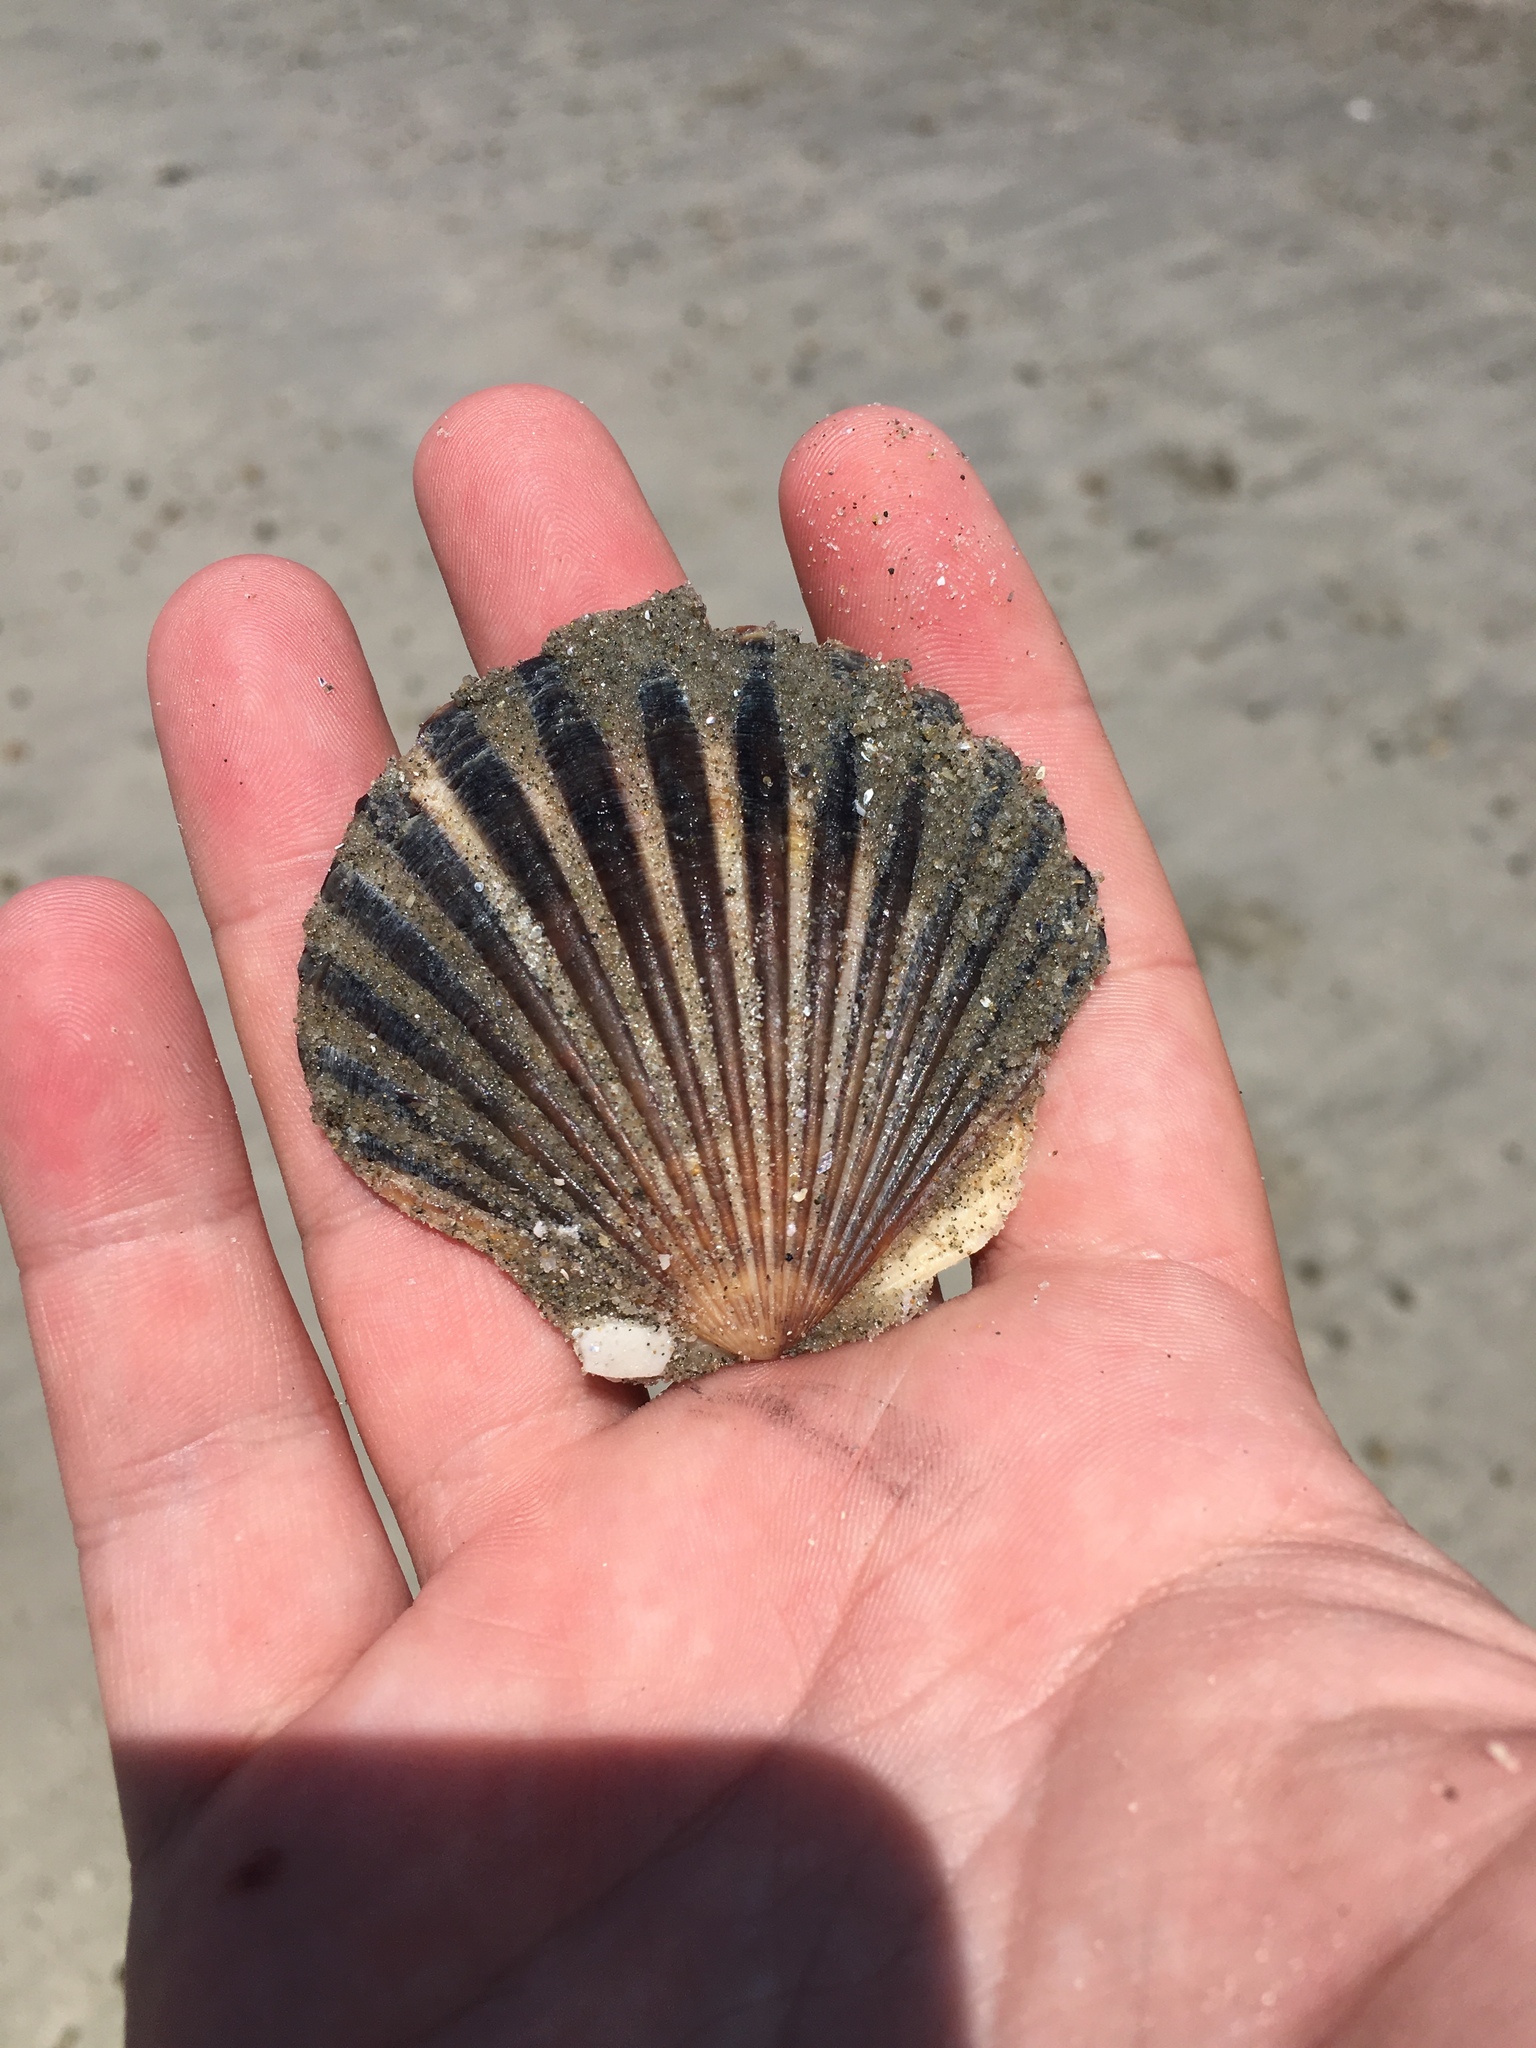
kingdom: Animalia
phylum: Mollusca
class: Bivalvia
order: Pectinida
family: Pectinidae
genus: Argopecten
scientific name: Argopecten irradians
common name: Atlantic bay scallop
